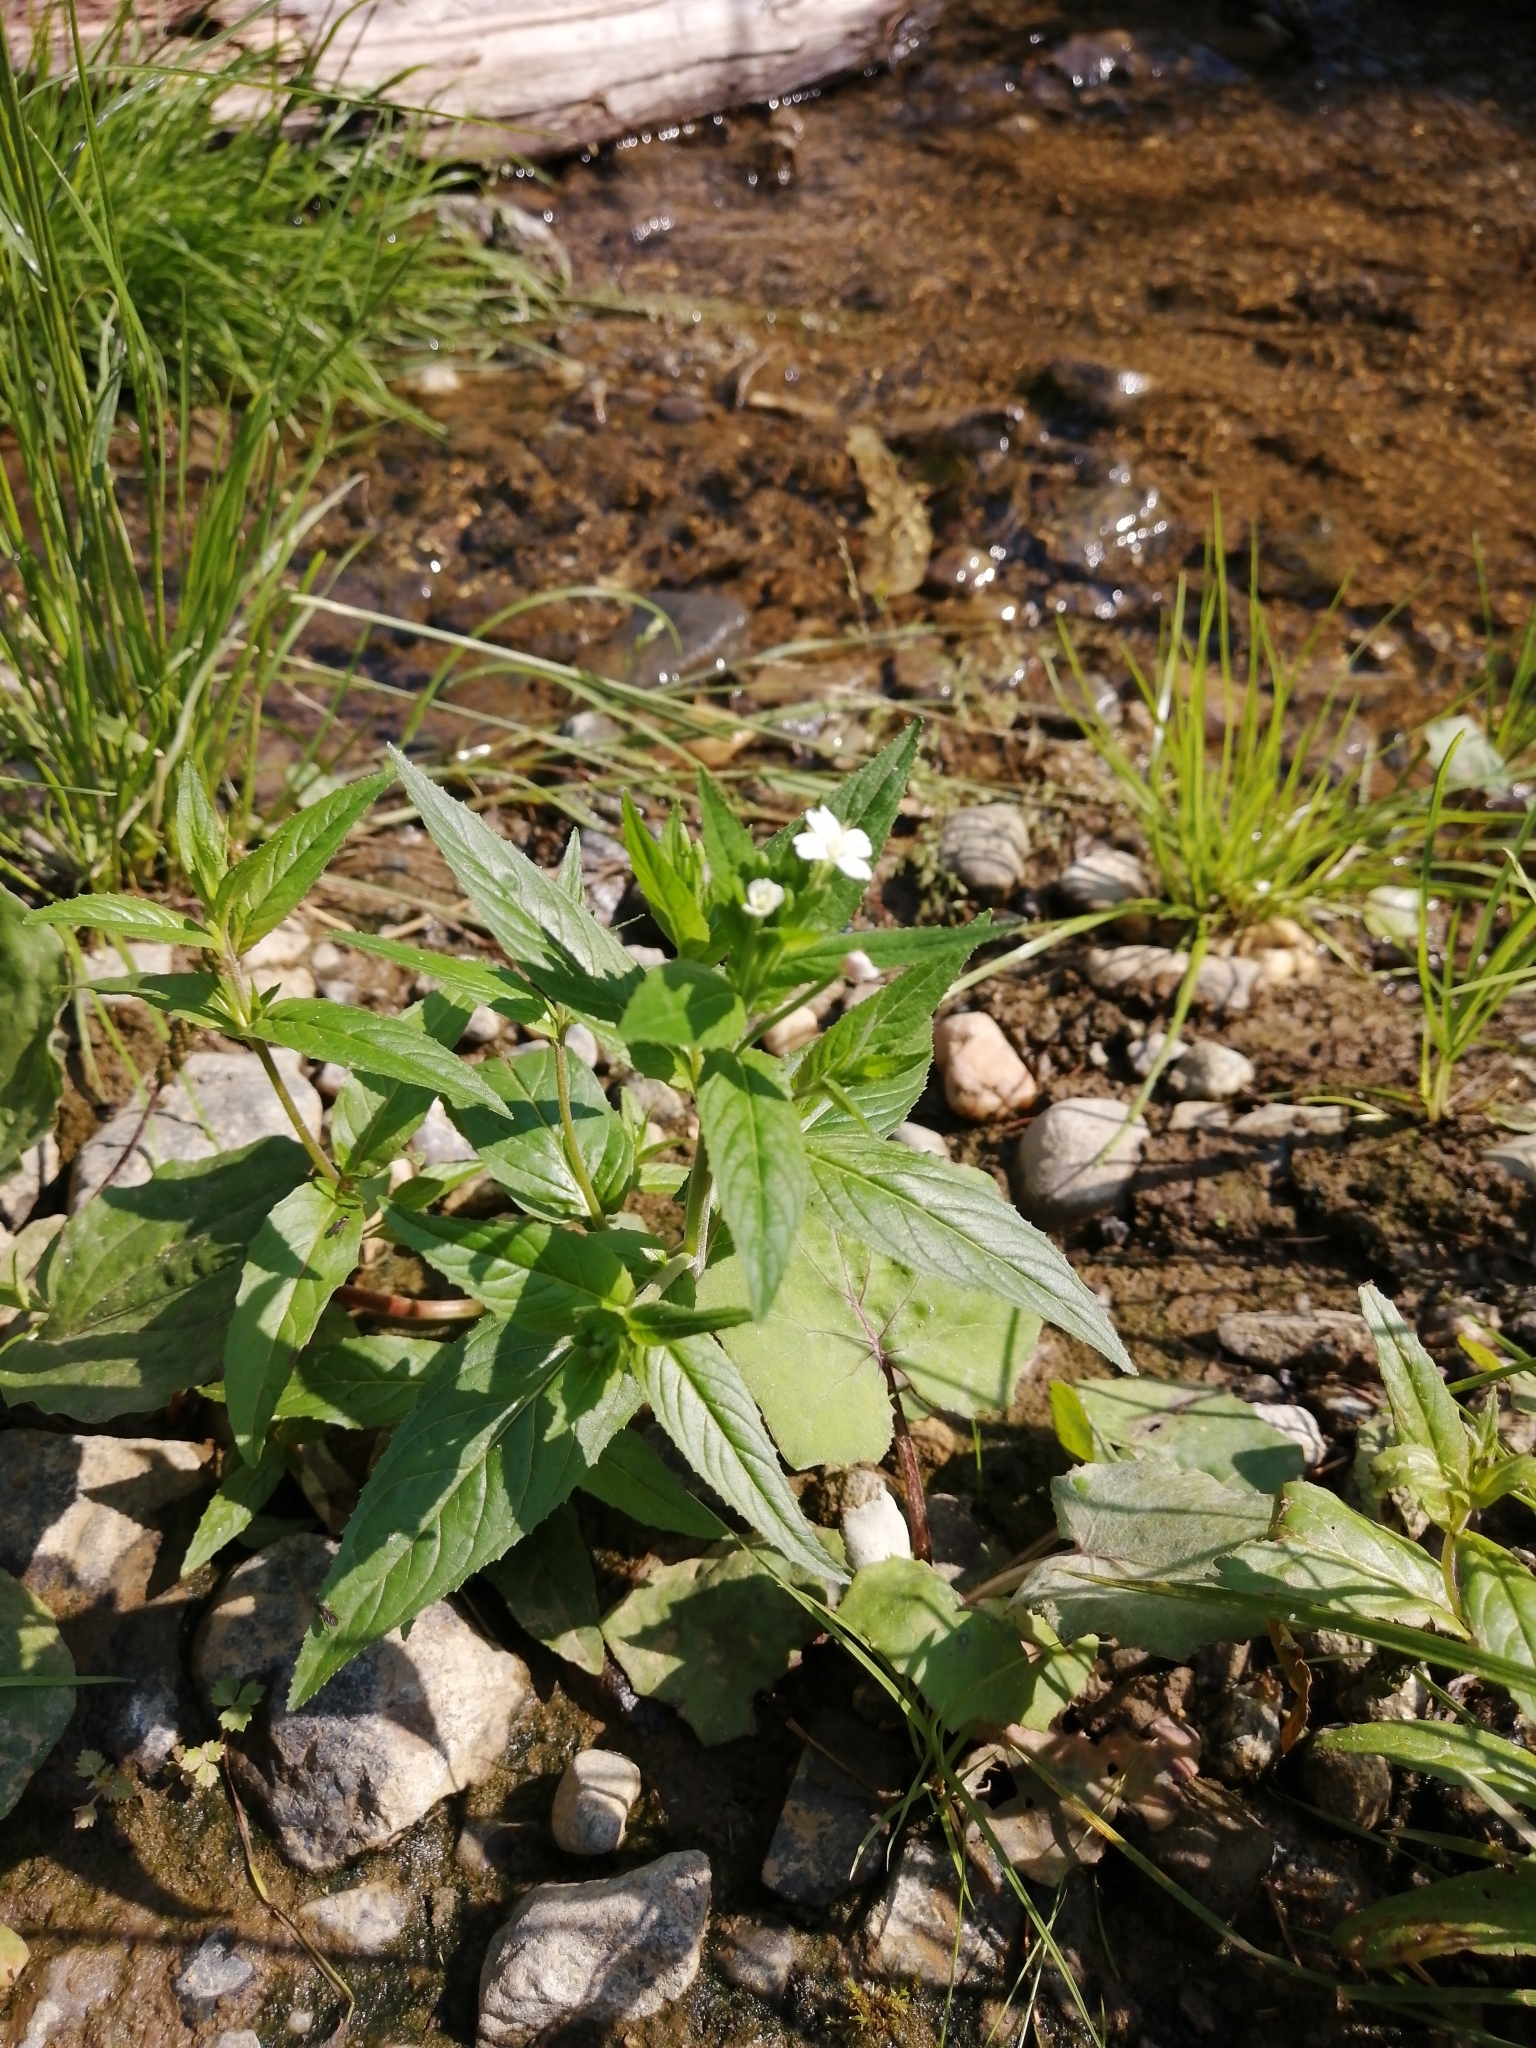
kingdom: Plantae
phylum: Tracheophyta
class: Magnoliopsida
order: Myrtales
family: Onagraceae
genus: Epilobium
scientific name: Epilobium pseudorubescens
